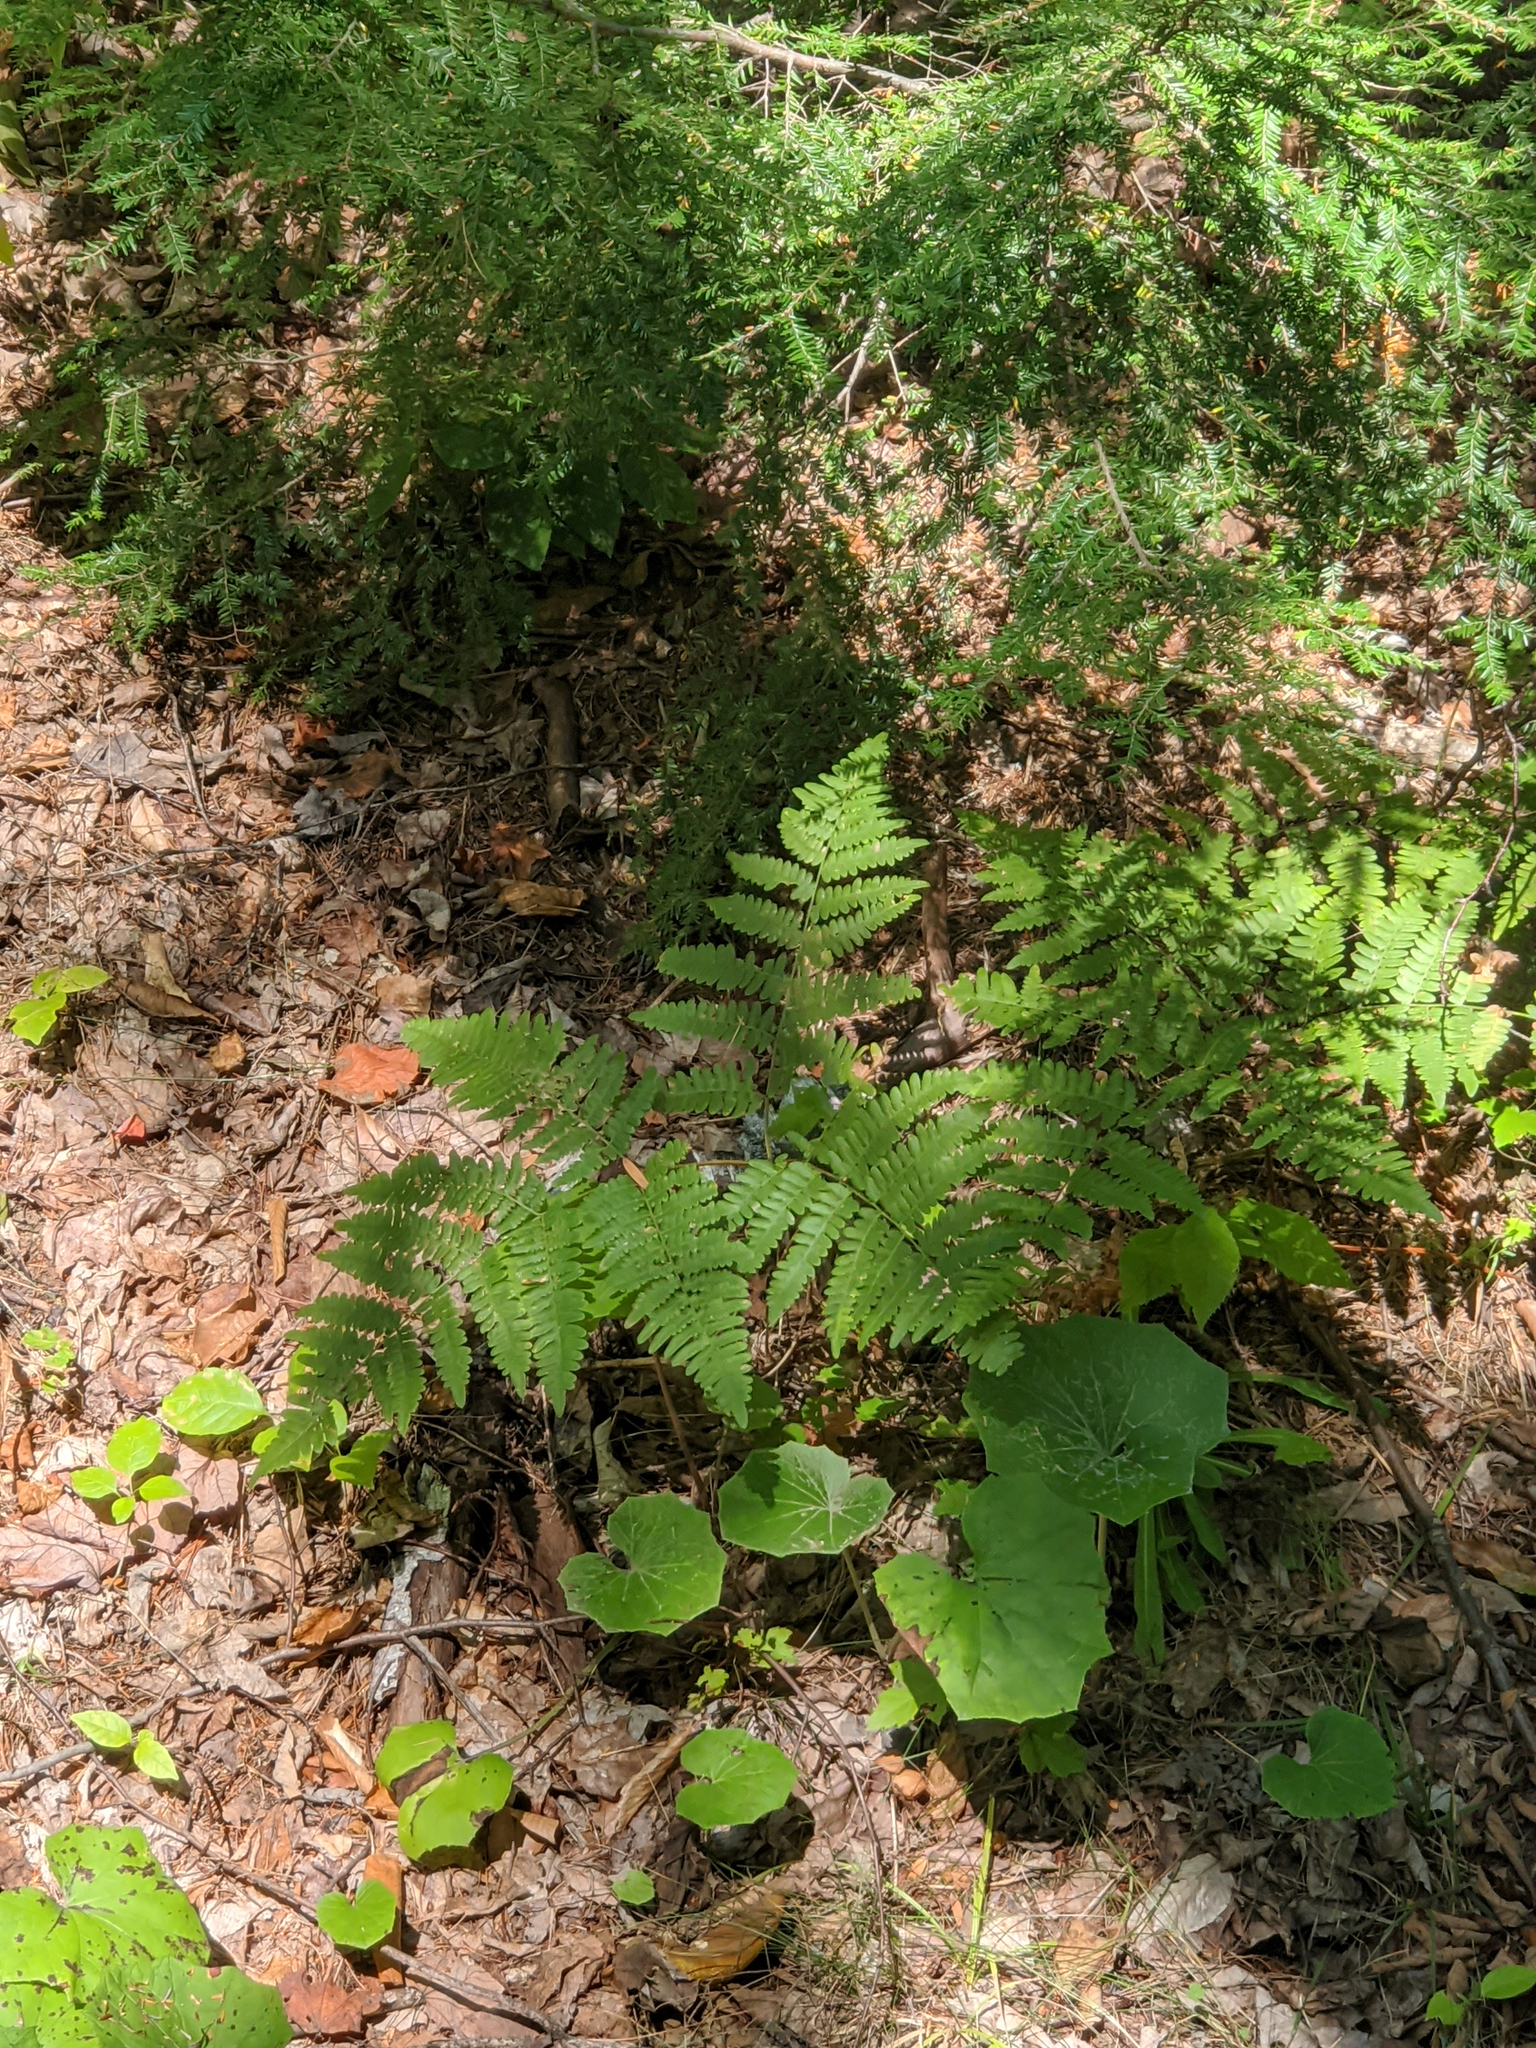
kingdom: Plantae
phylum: Tracheophyta
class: Magnoliopsida
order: Asterales
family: Asteraceae
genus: Tussilago
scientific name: Tussilago farfara
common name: Coltsfoot
